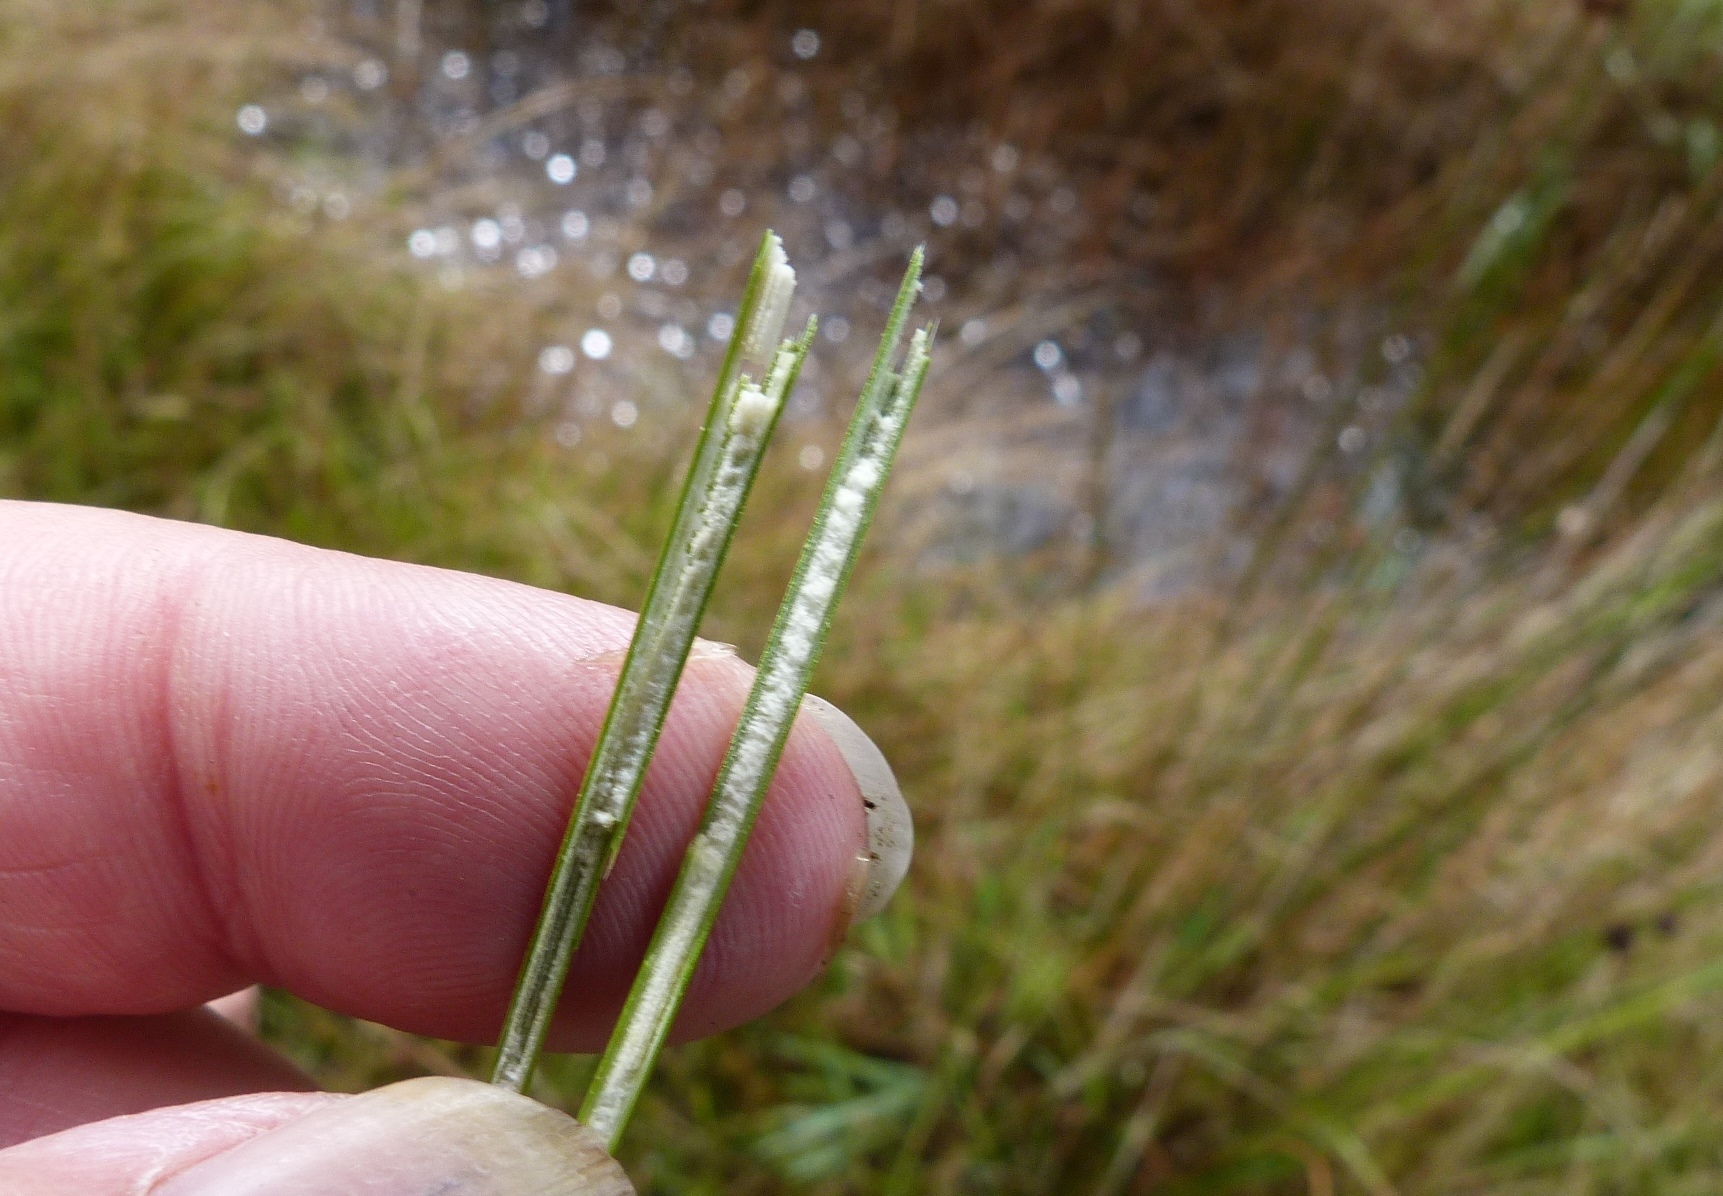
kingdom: Plantae
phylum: Tracheophyta
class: Liliopsida
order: Poales
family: Juncaceae
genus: Juncus
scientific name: Juncus edgariae
